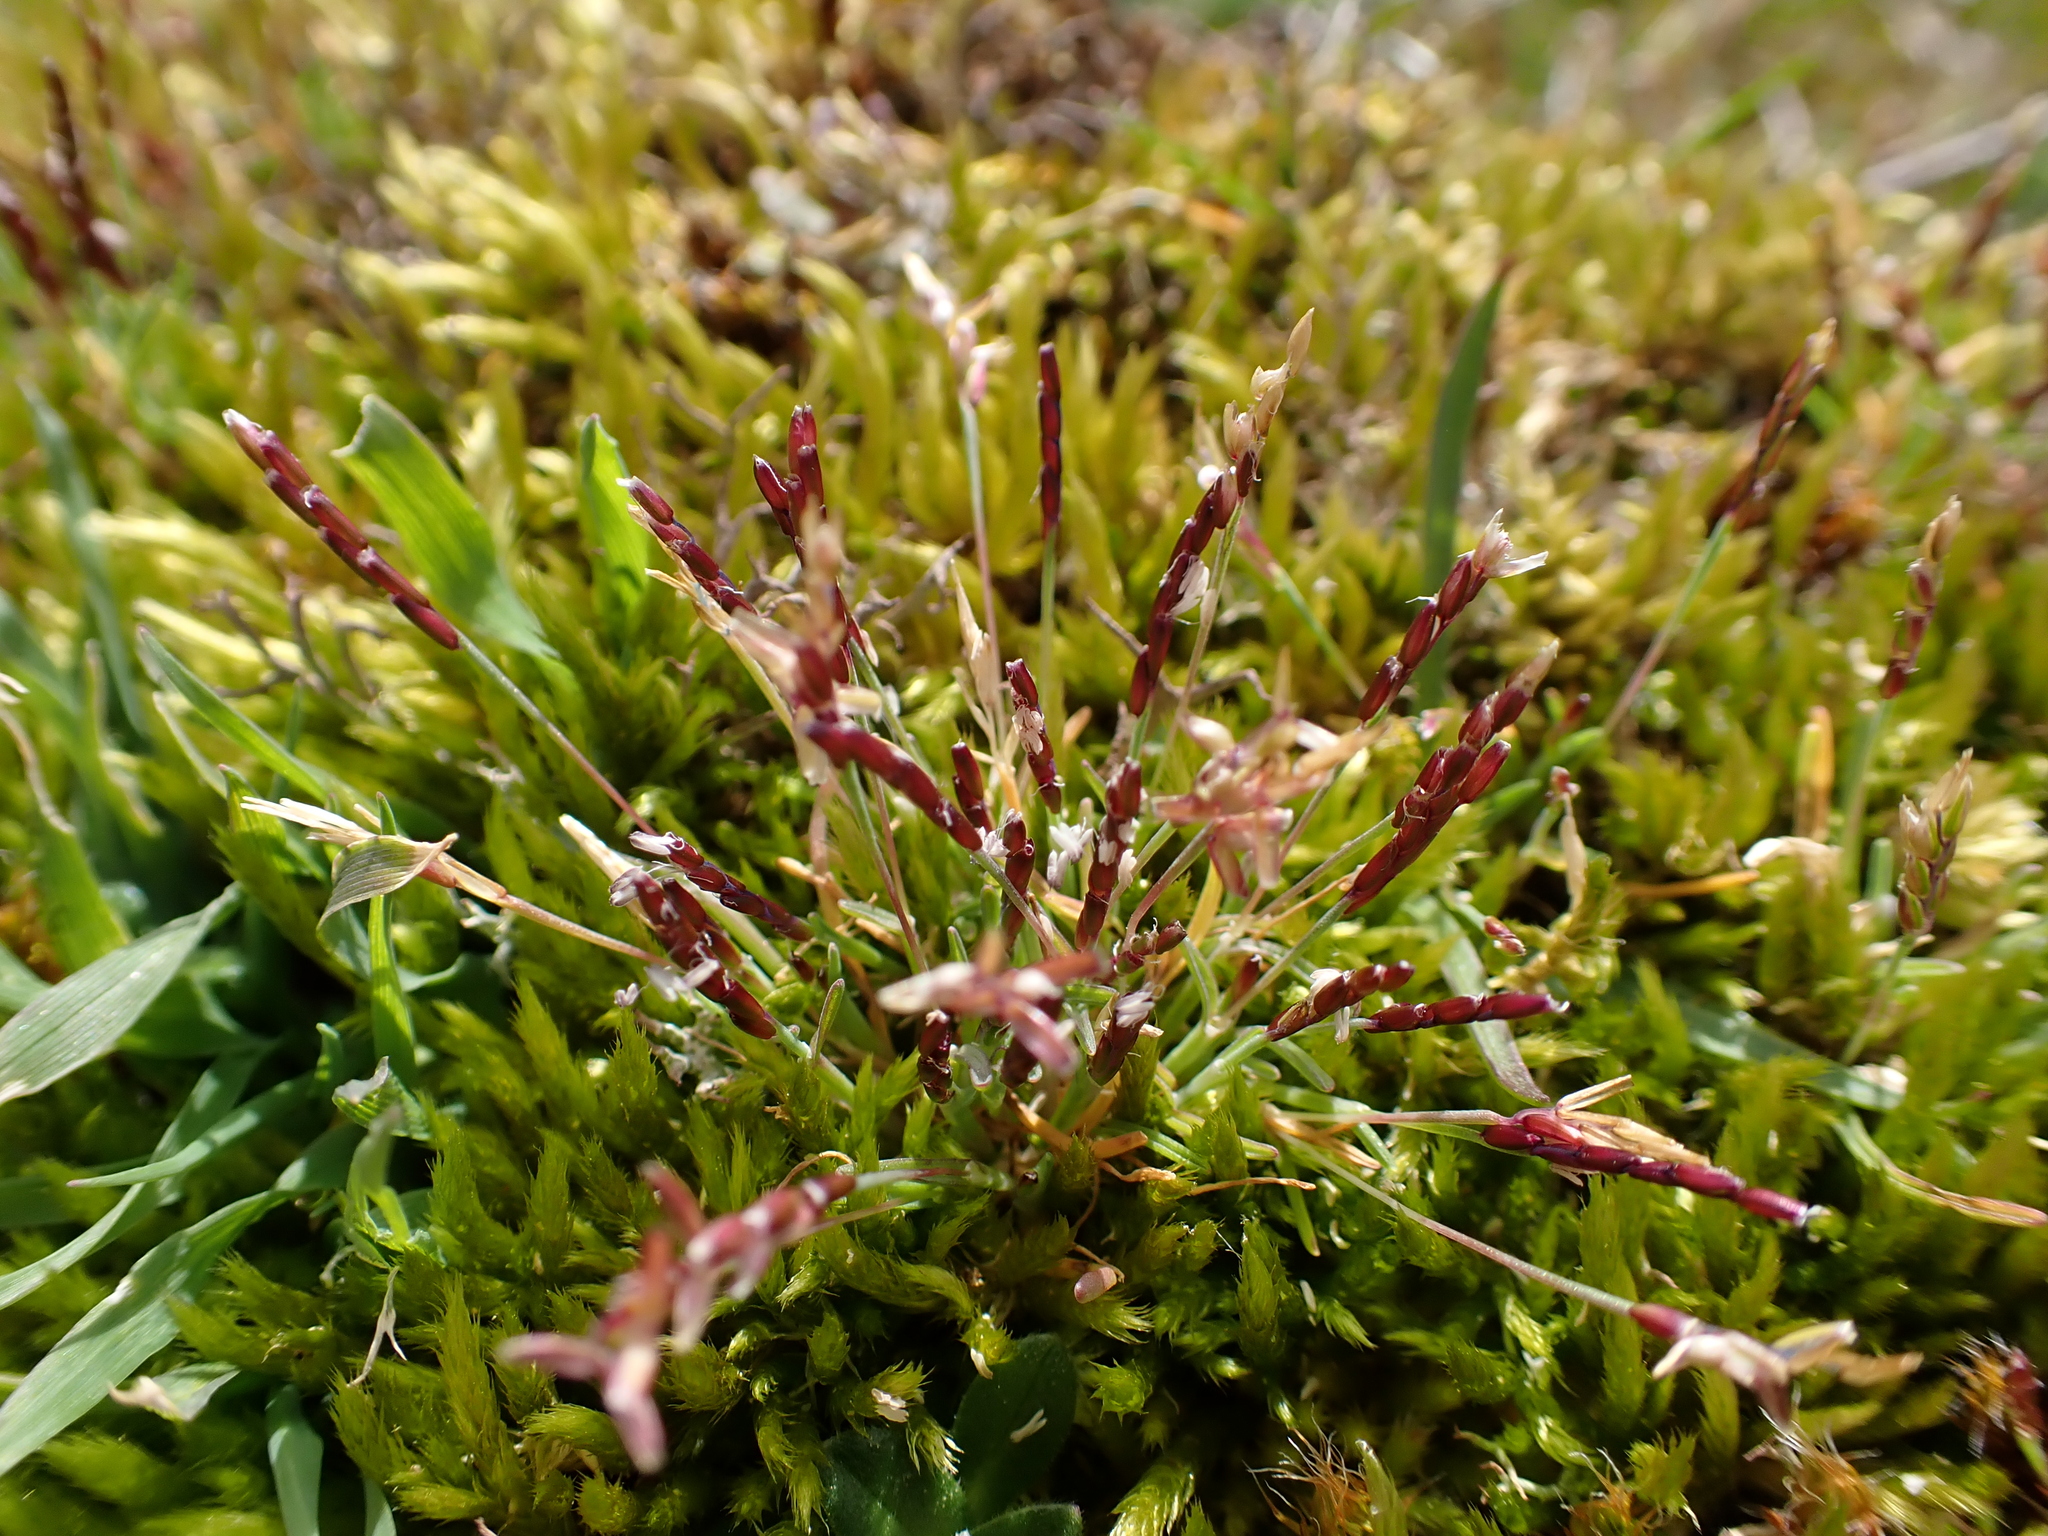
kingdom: Plantae
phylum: Tracheophyta
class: Liliopsida
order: Poales
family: Poaceae
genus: Mibora
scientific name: Mibora minima
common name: Early sand-grass
